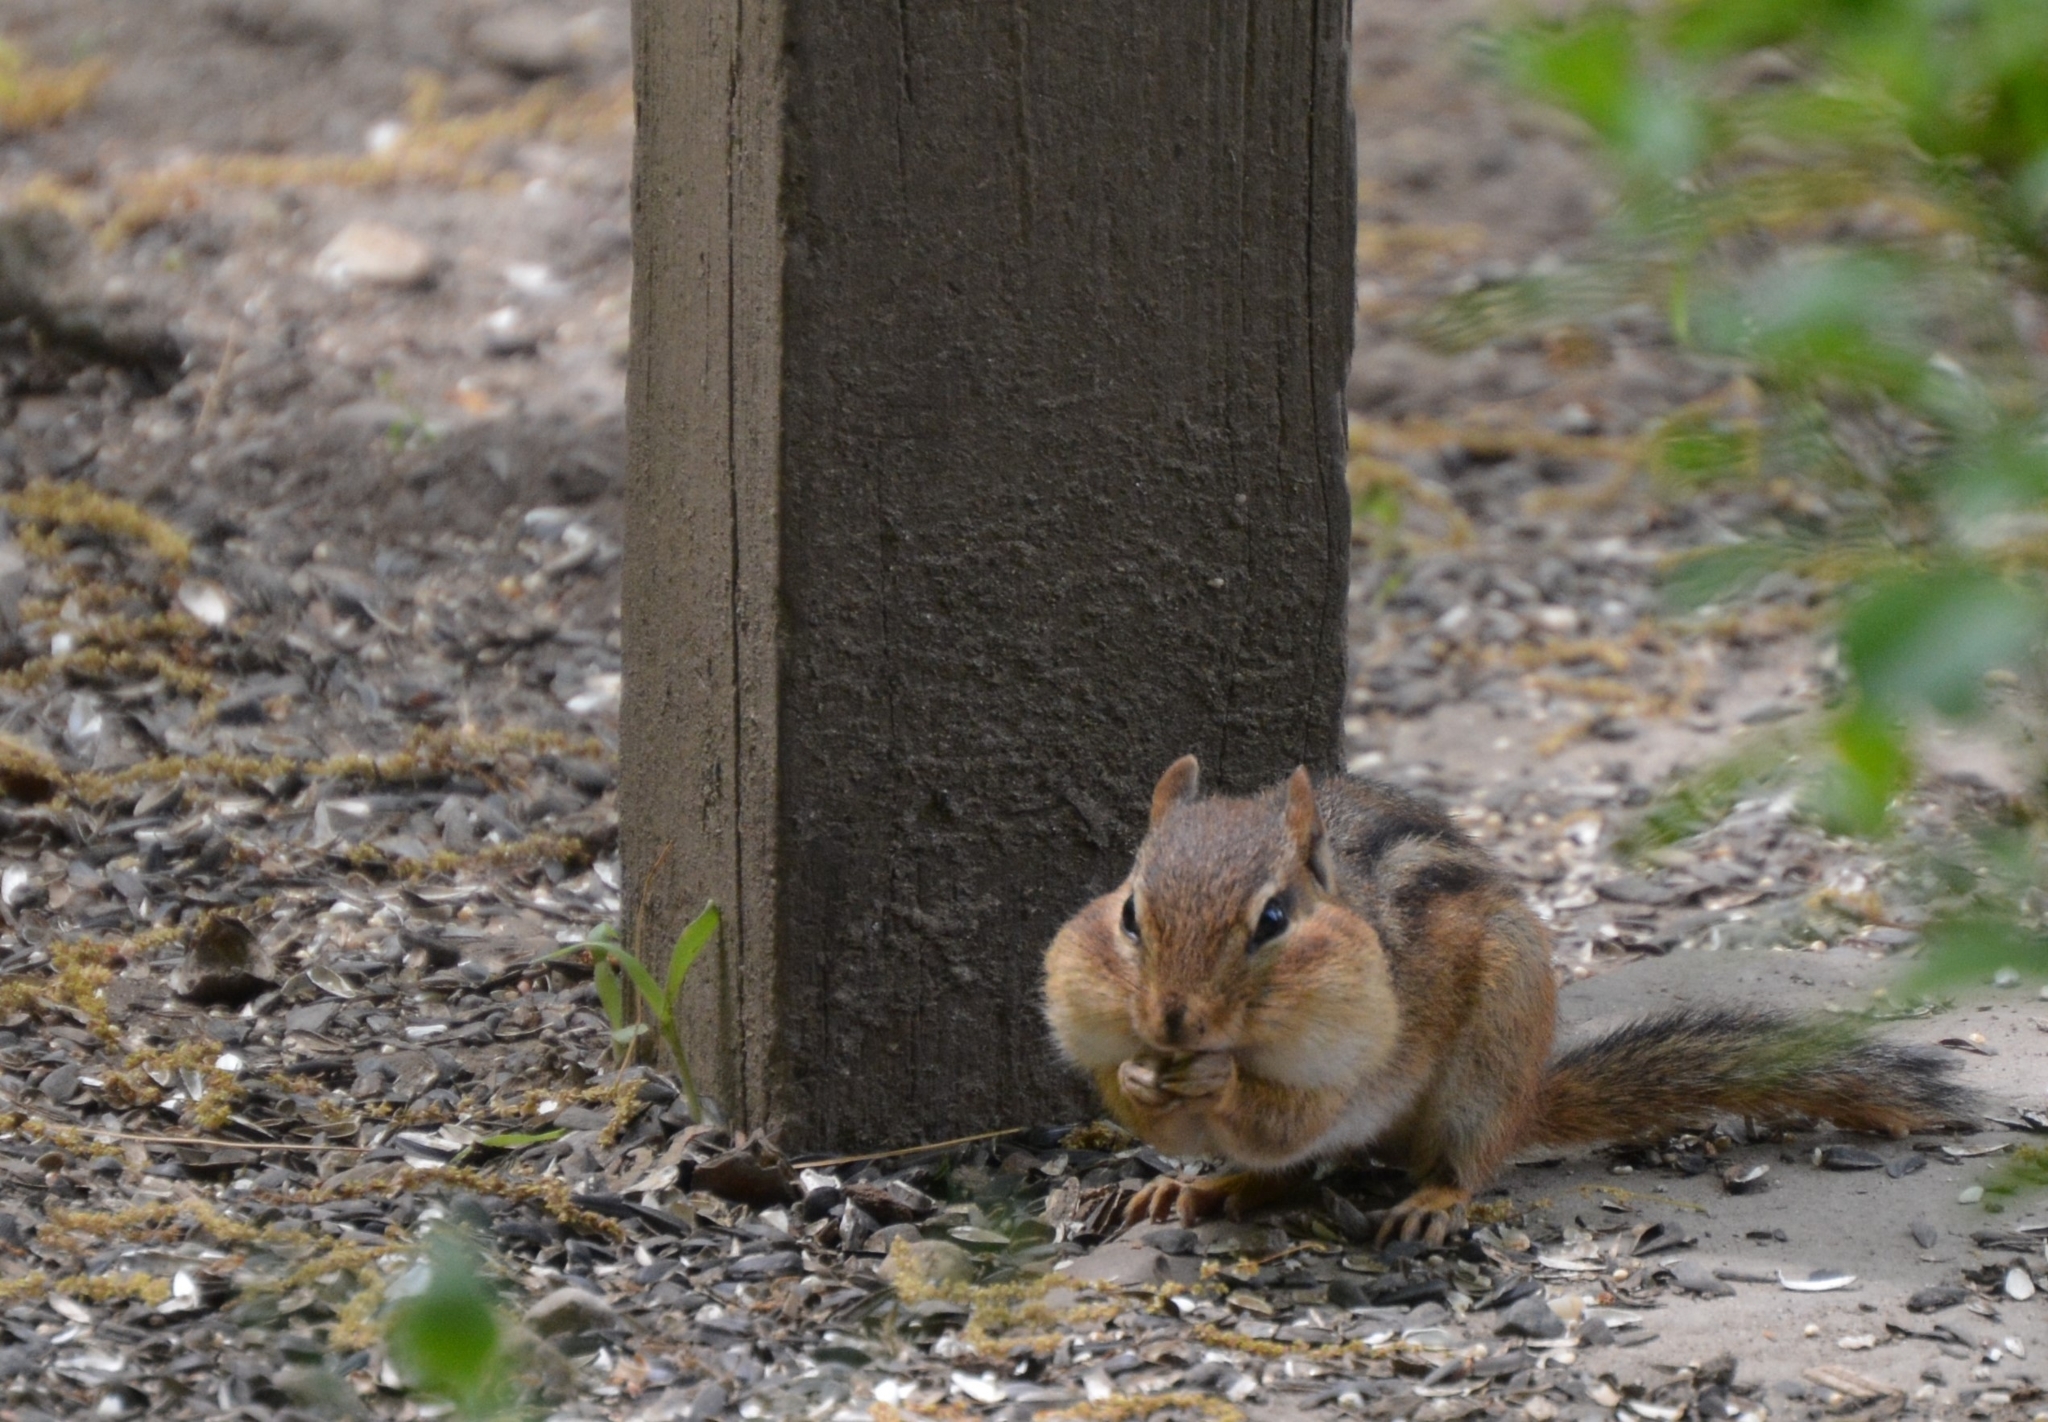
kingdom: Animalia
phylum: Chordata
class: Mammalia
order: Rodentia
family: Sciuridae
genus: Tamias
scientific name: Tamias striatus
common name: Eastern chipmunk
